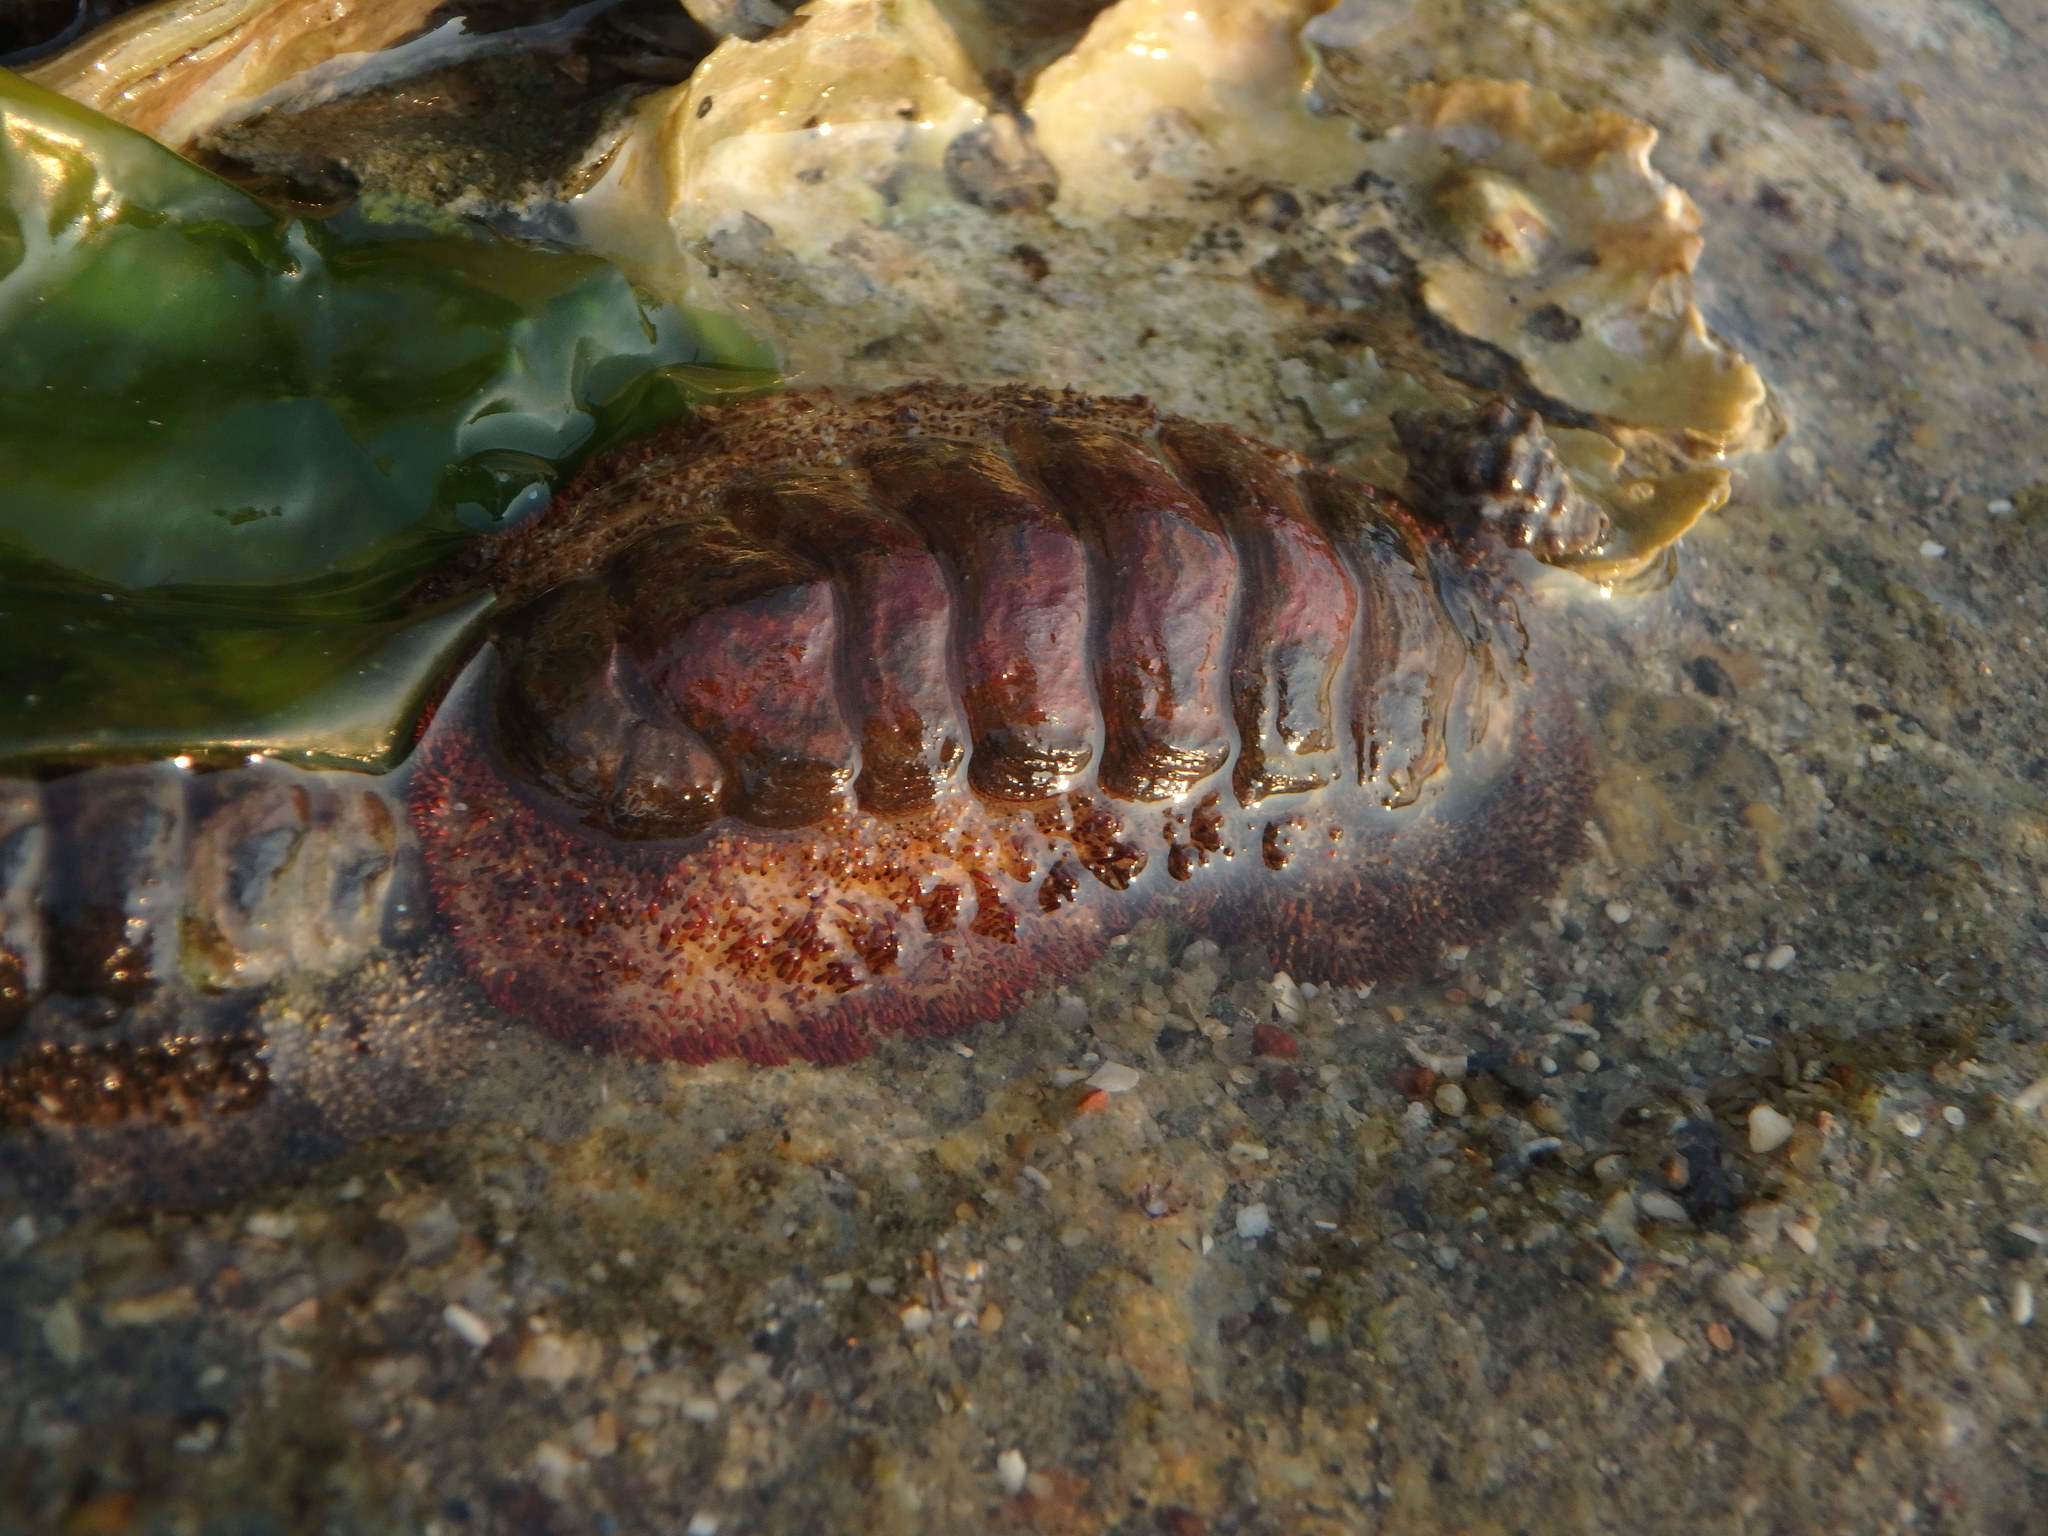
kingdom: Animalia
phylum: Mollusca
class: Polyplacophora
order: Chitonida
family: Chitonidae
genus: Liolophura
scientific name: Liolophura japonica
